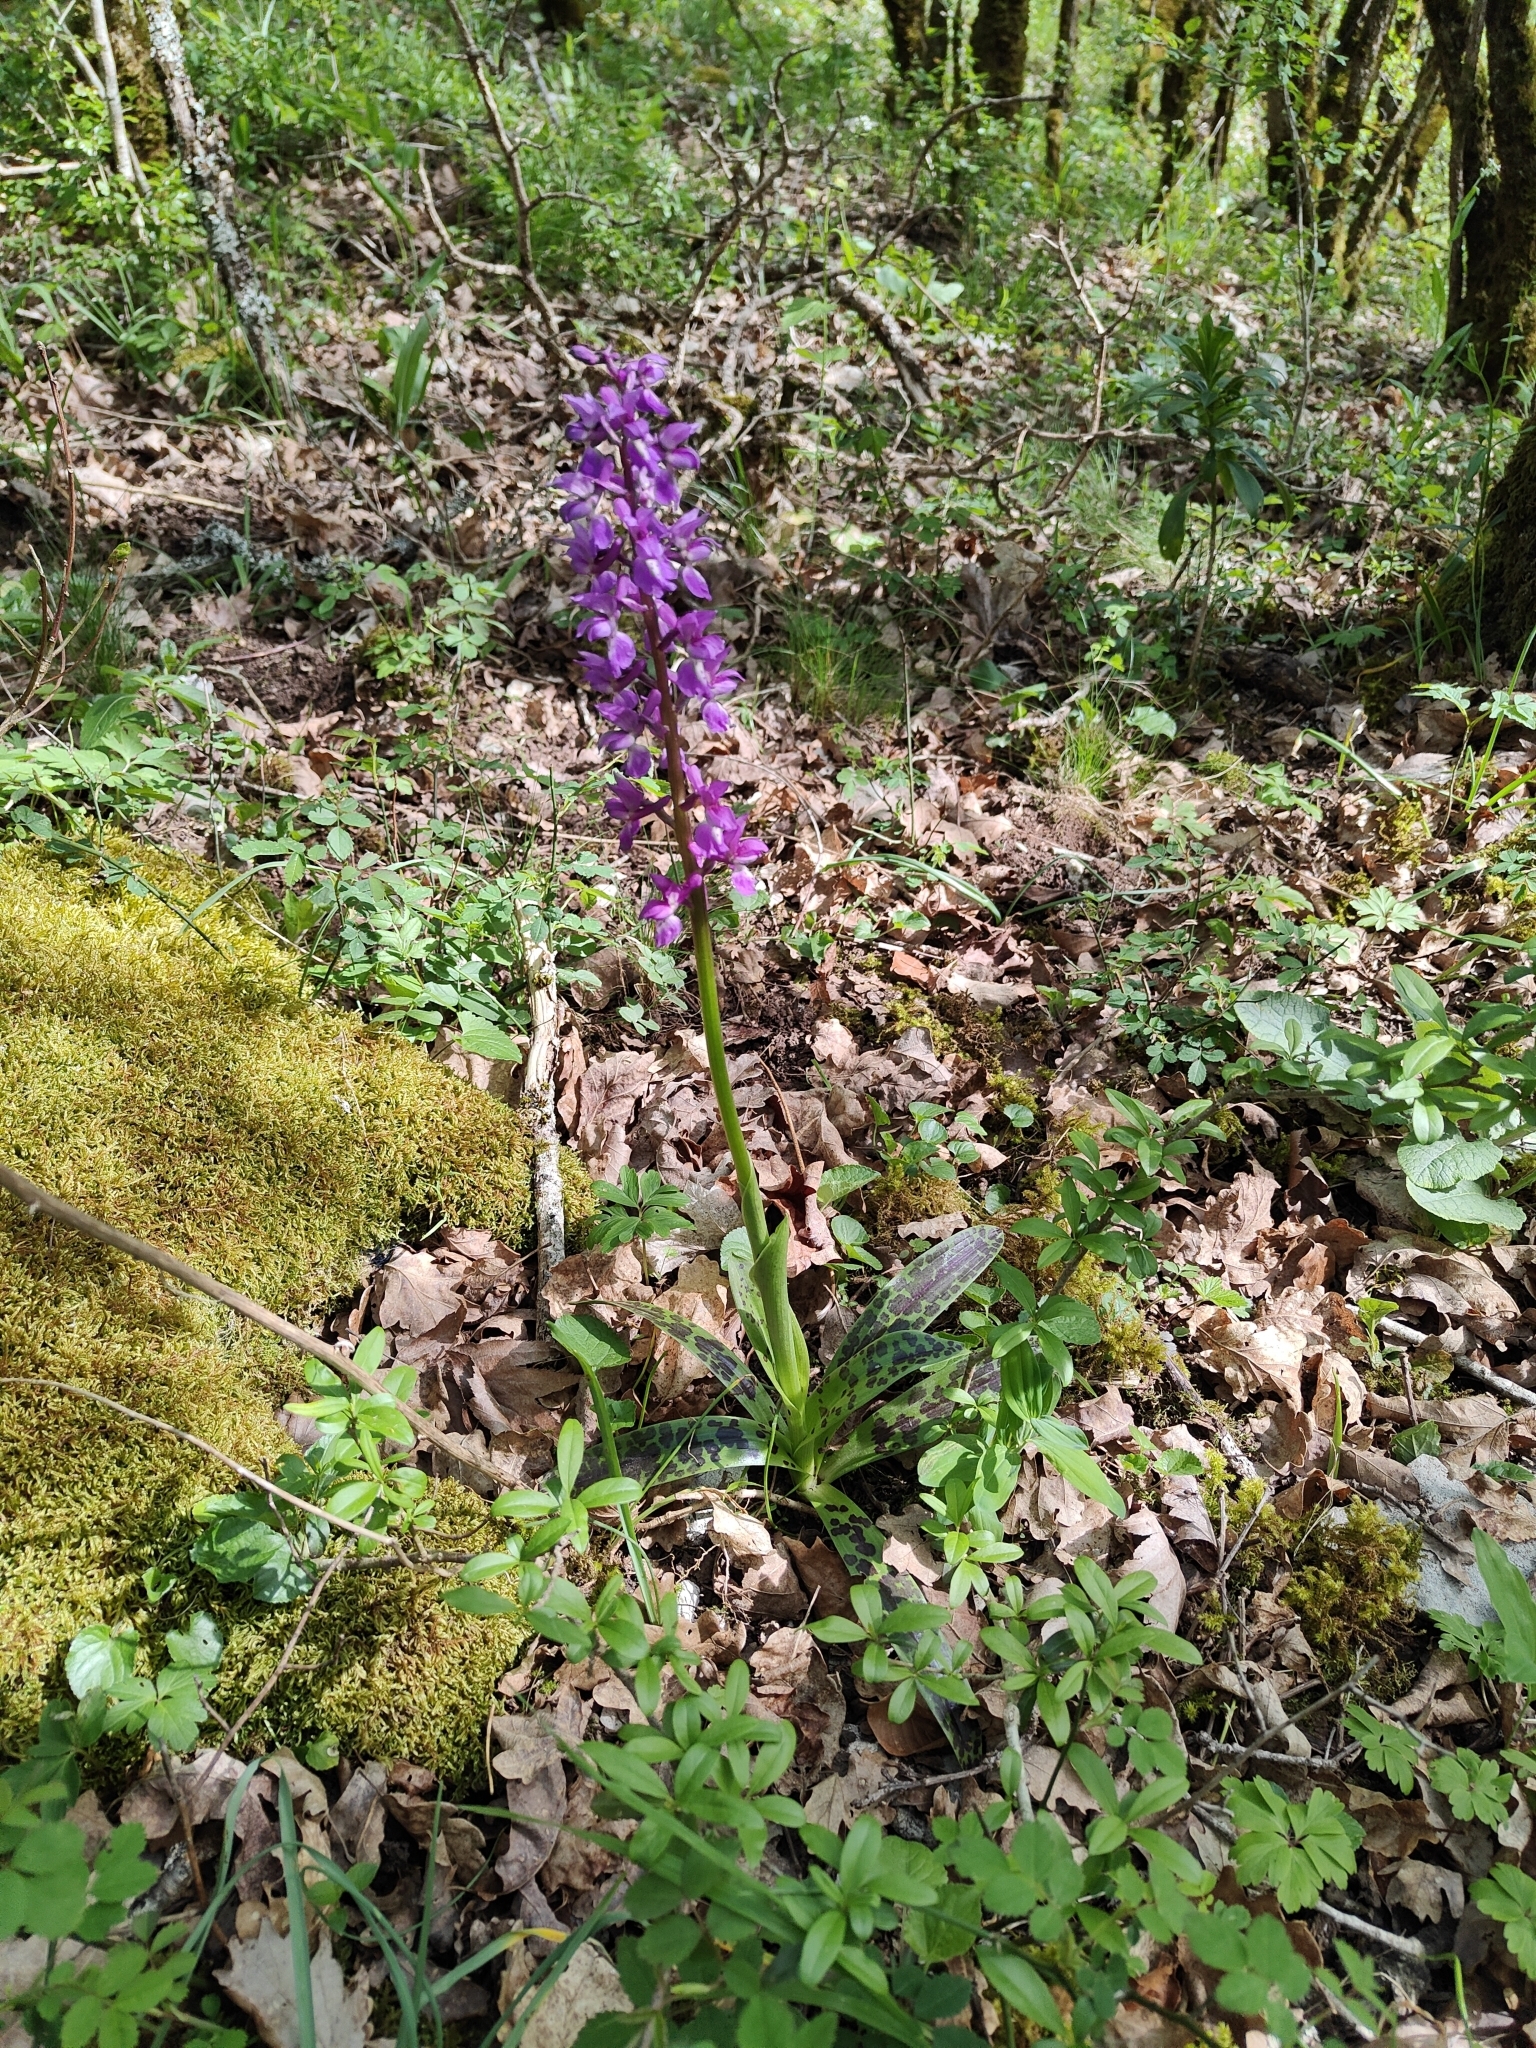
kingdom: Plantae
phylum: Tracheophyta
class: Liliopsida
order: Asparagales
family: Orchidaceae
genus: Orchis
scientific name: Orchis mascula
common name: Early-purple orchid
